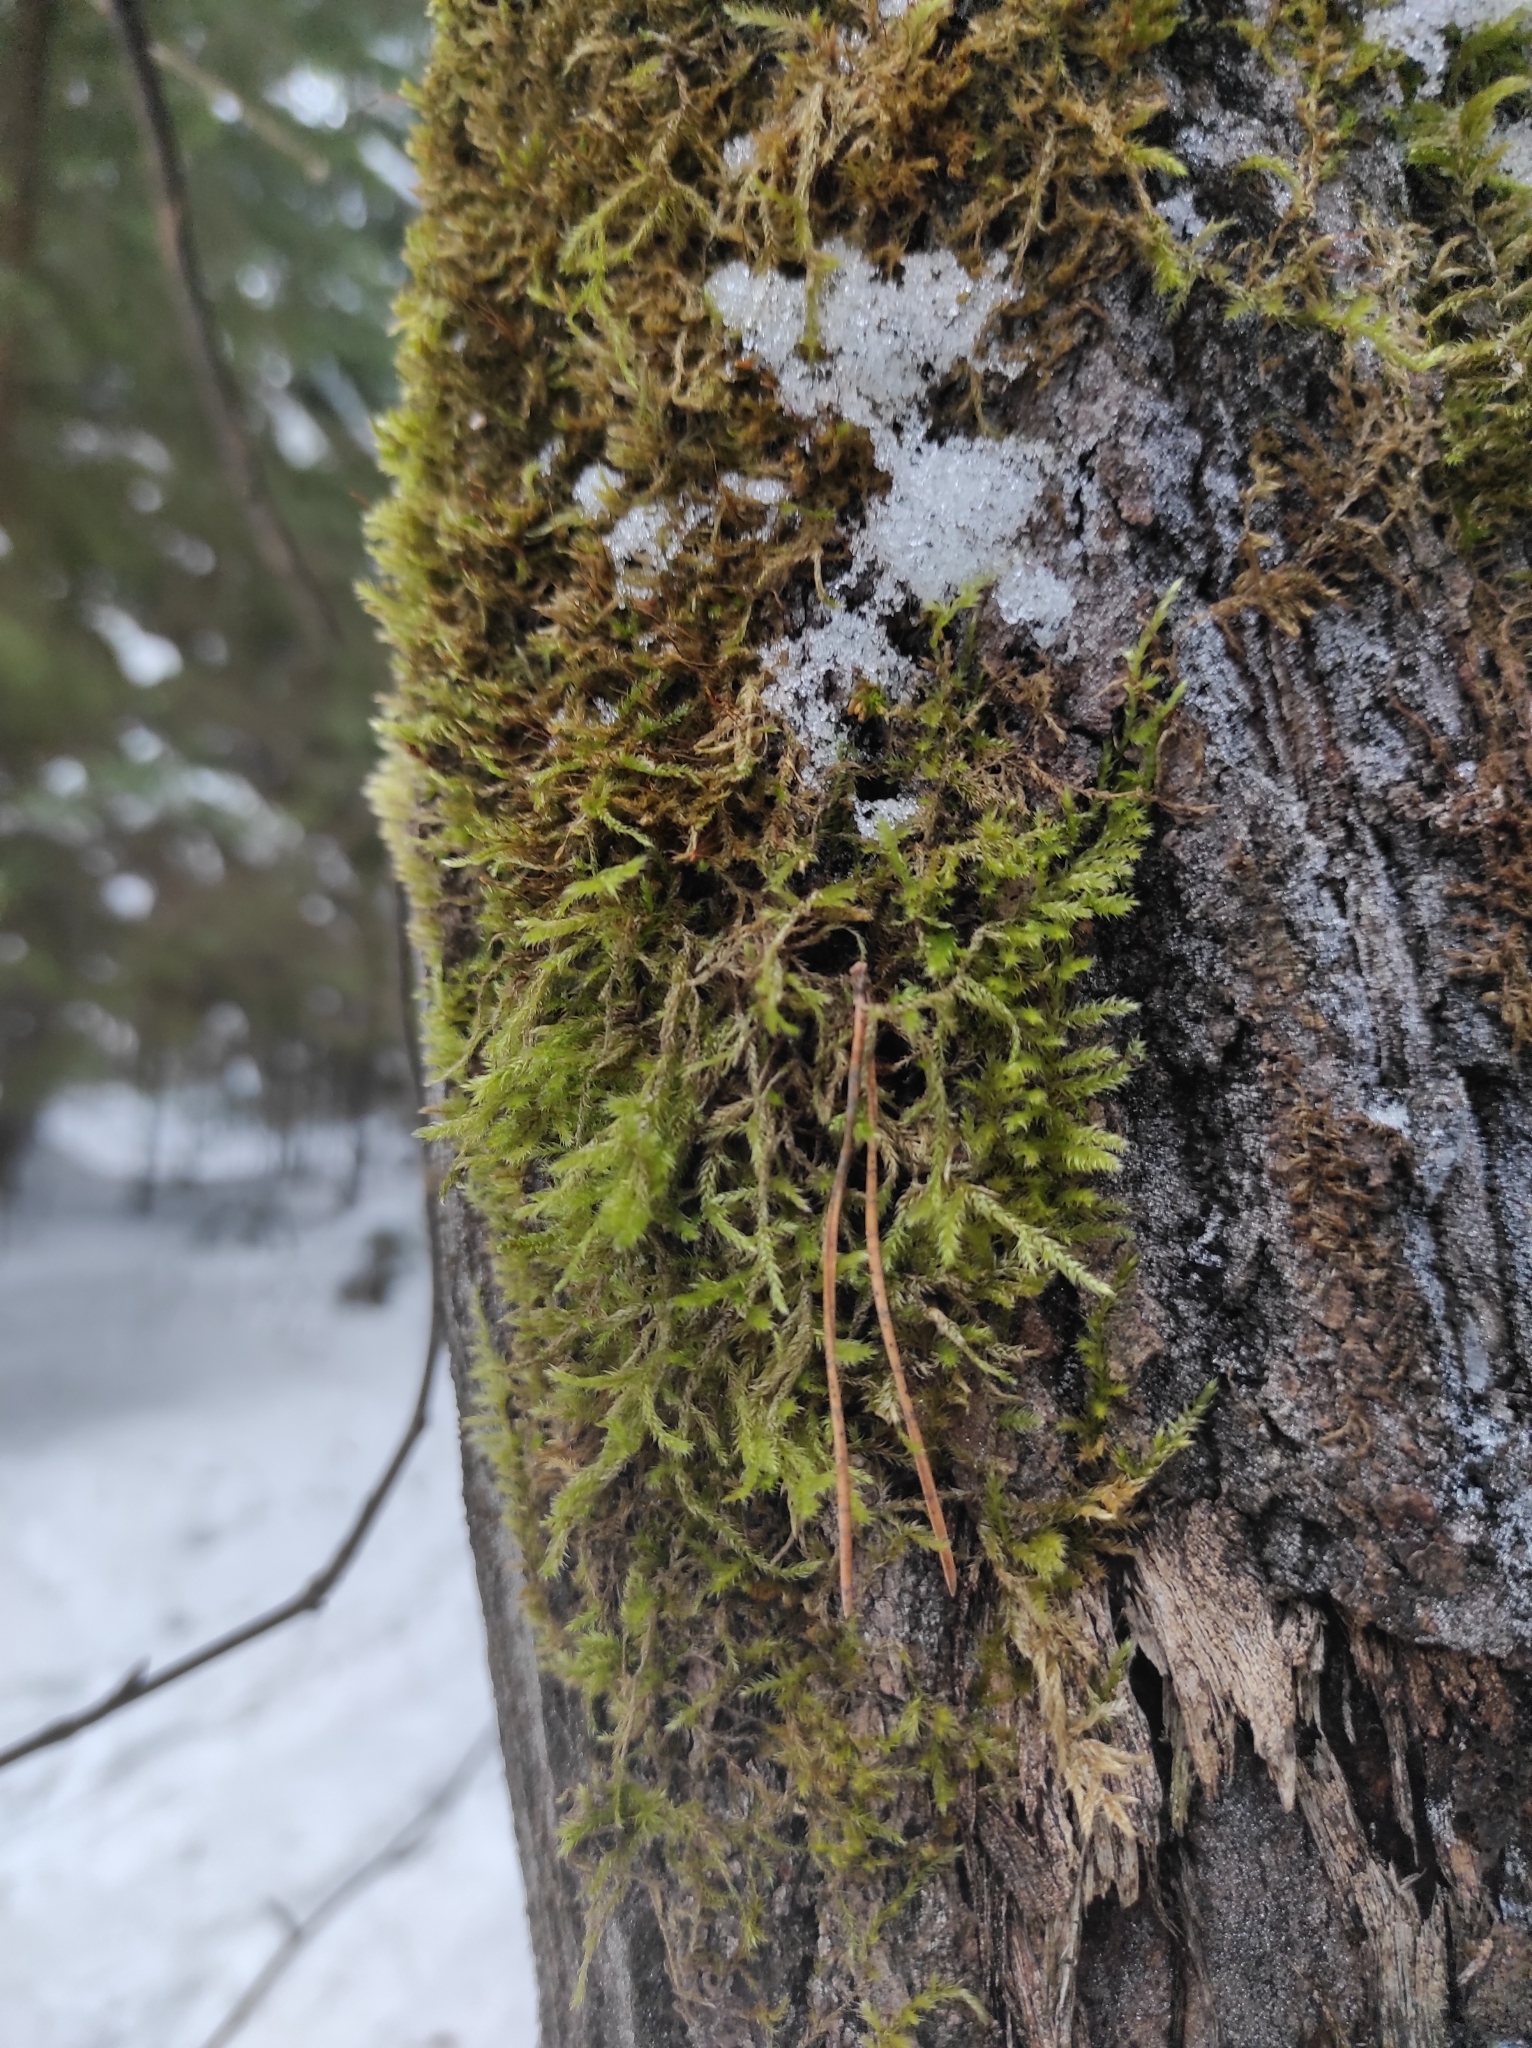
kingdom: Plantae
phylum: Bryophyta
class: Bryopsida
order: Hypnales
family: Hypnaceae
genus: Hypnum
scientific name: Hypnum cupressiforme
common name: Cypress-leaved plait-moss
